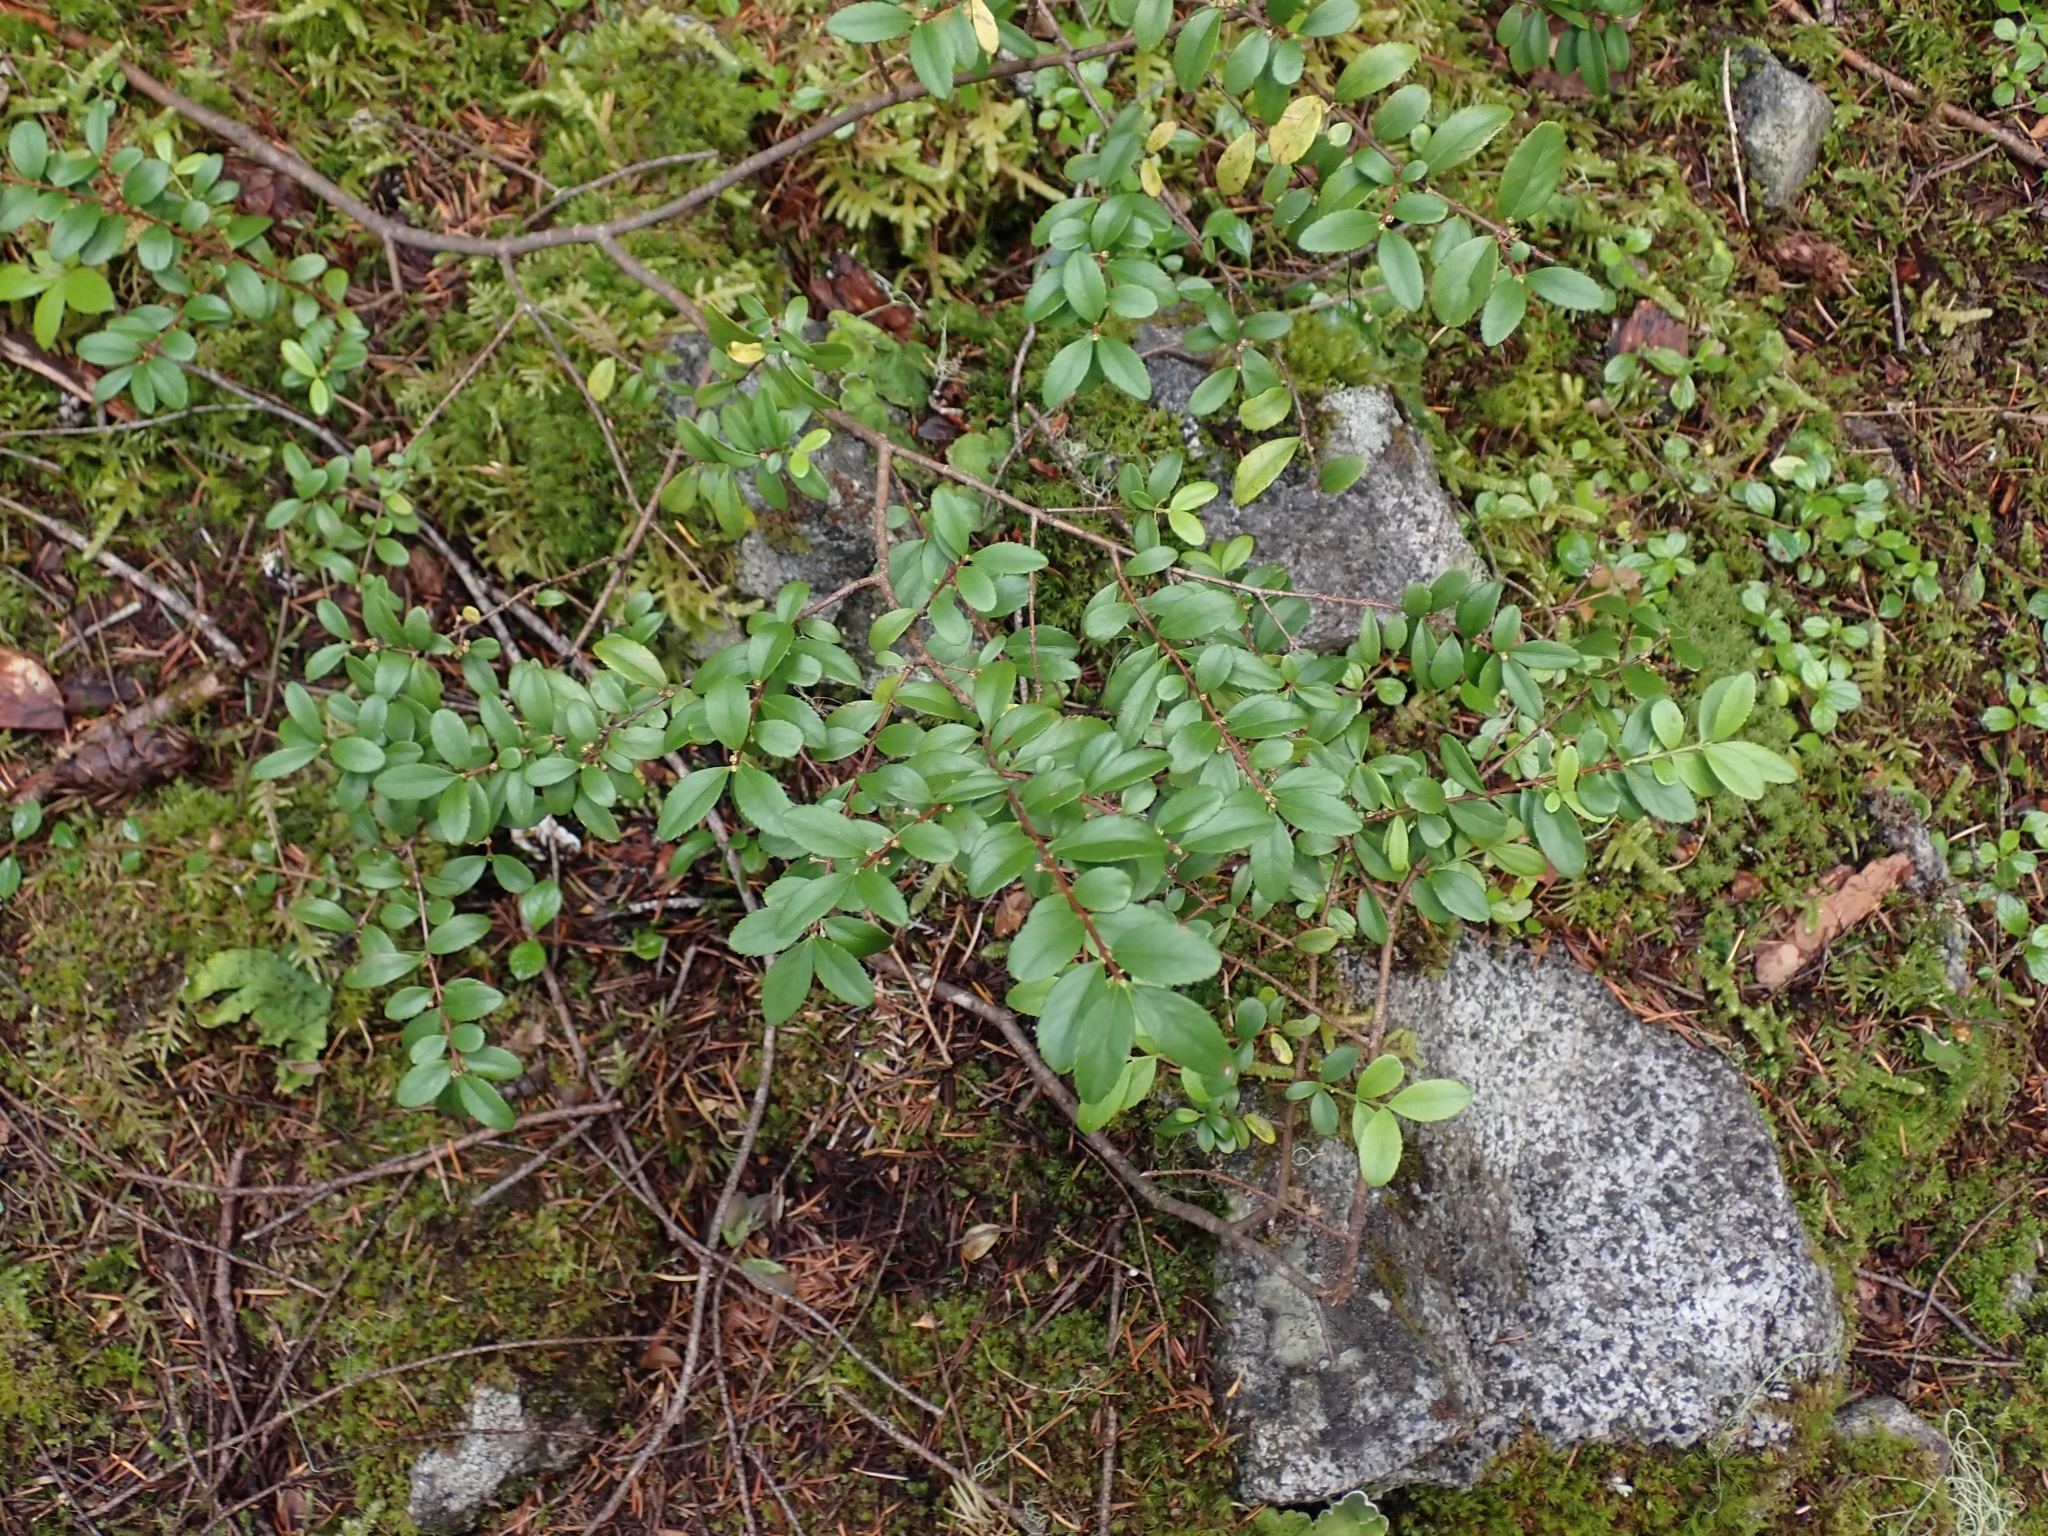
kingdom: Plantae
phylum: Tracheophyta
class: Magnoliopsida
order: Celastrales
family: Celastraceae
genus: Paxistima
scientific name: Paxistima myrsinites
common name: Mountain-lover
